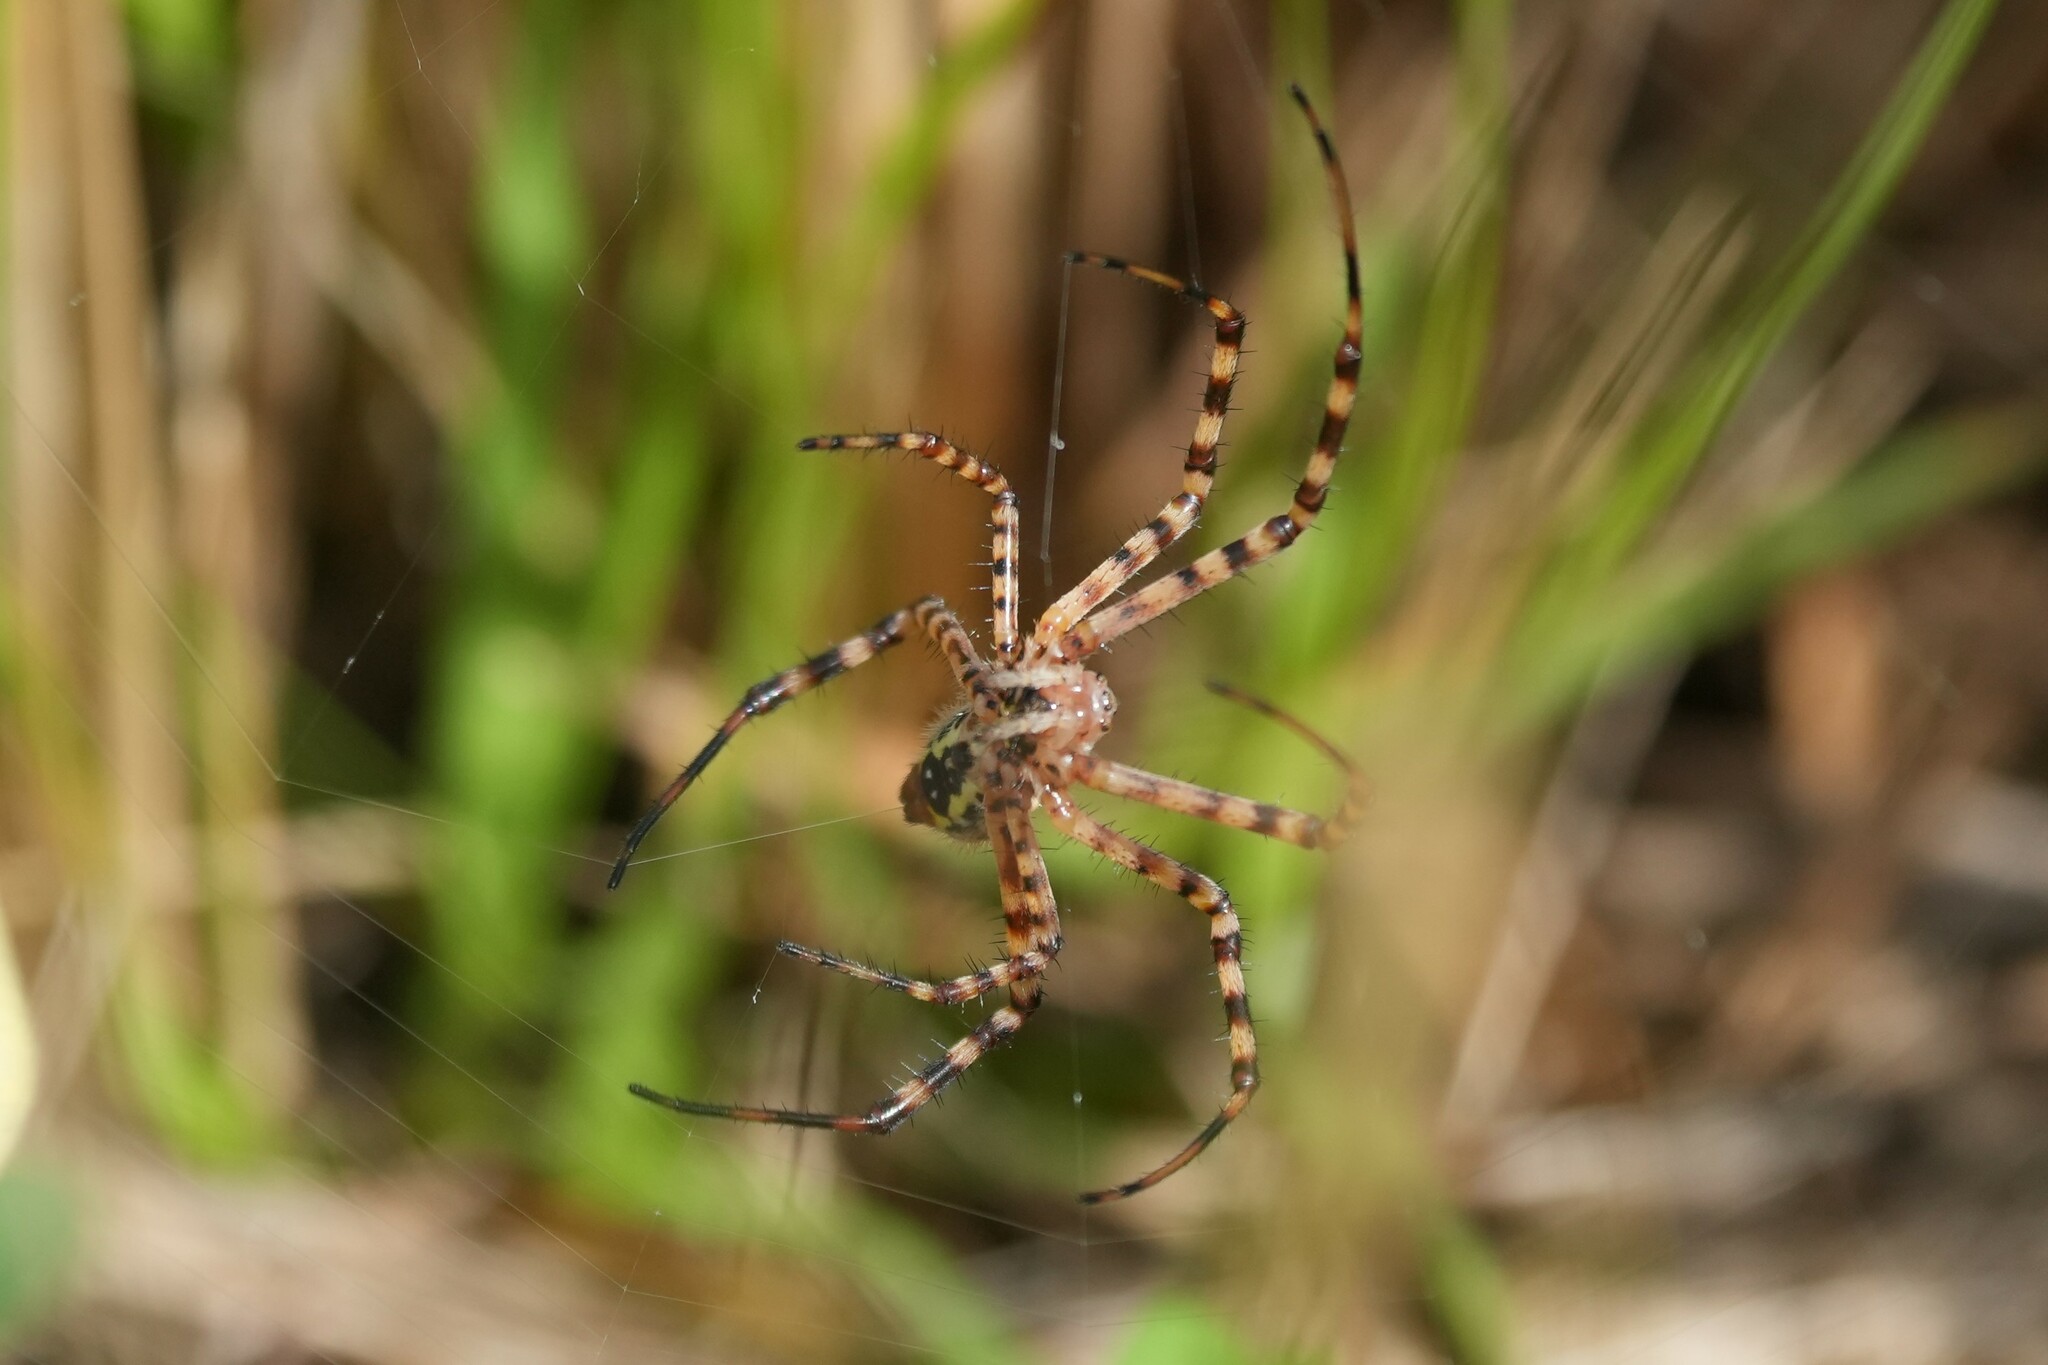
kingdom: Animalia
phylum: Arthropoda
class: Arachnida
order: Araneae
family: Araneidae
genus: Argiope
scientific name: Argiope trifasciata
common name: Banded garden spider
